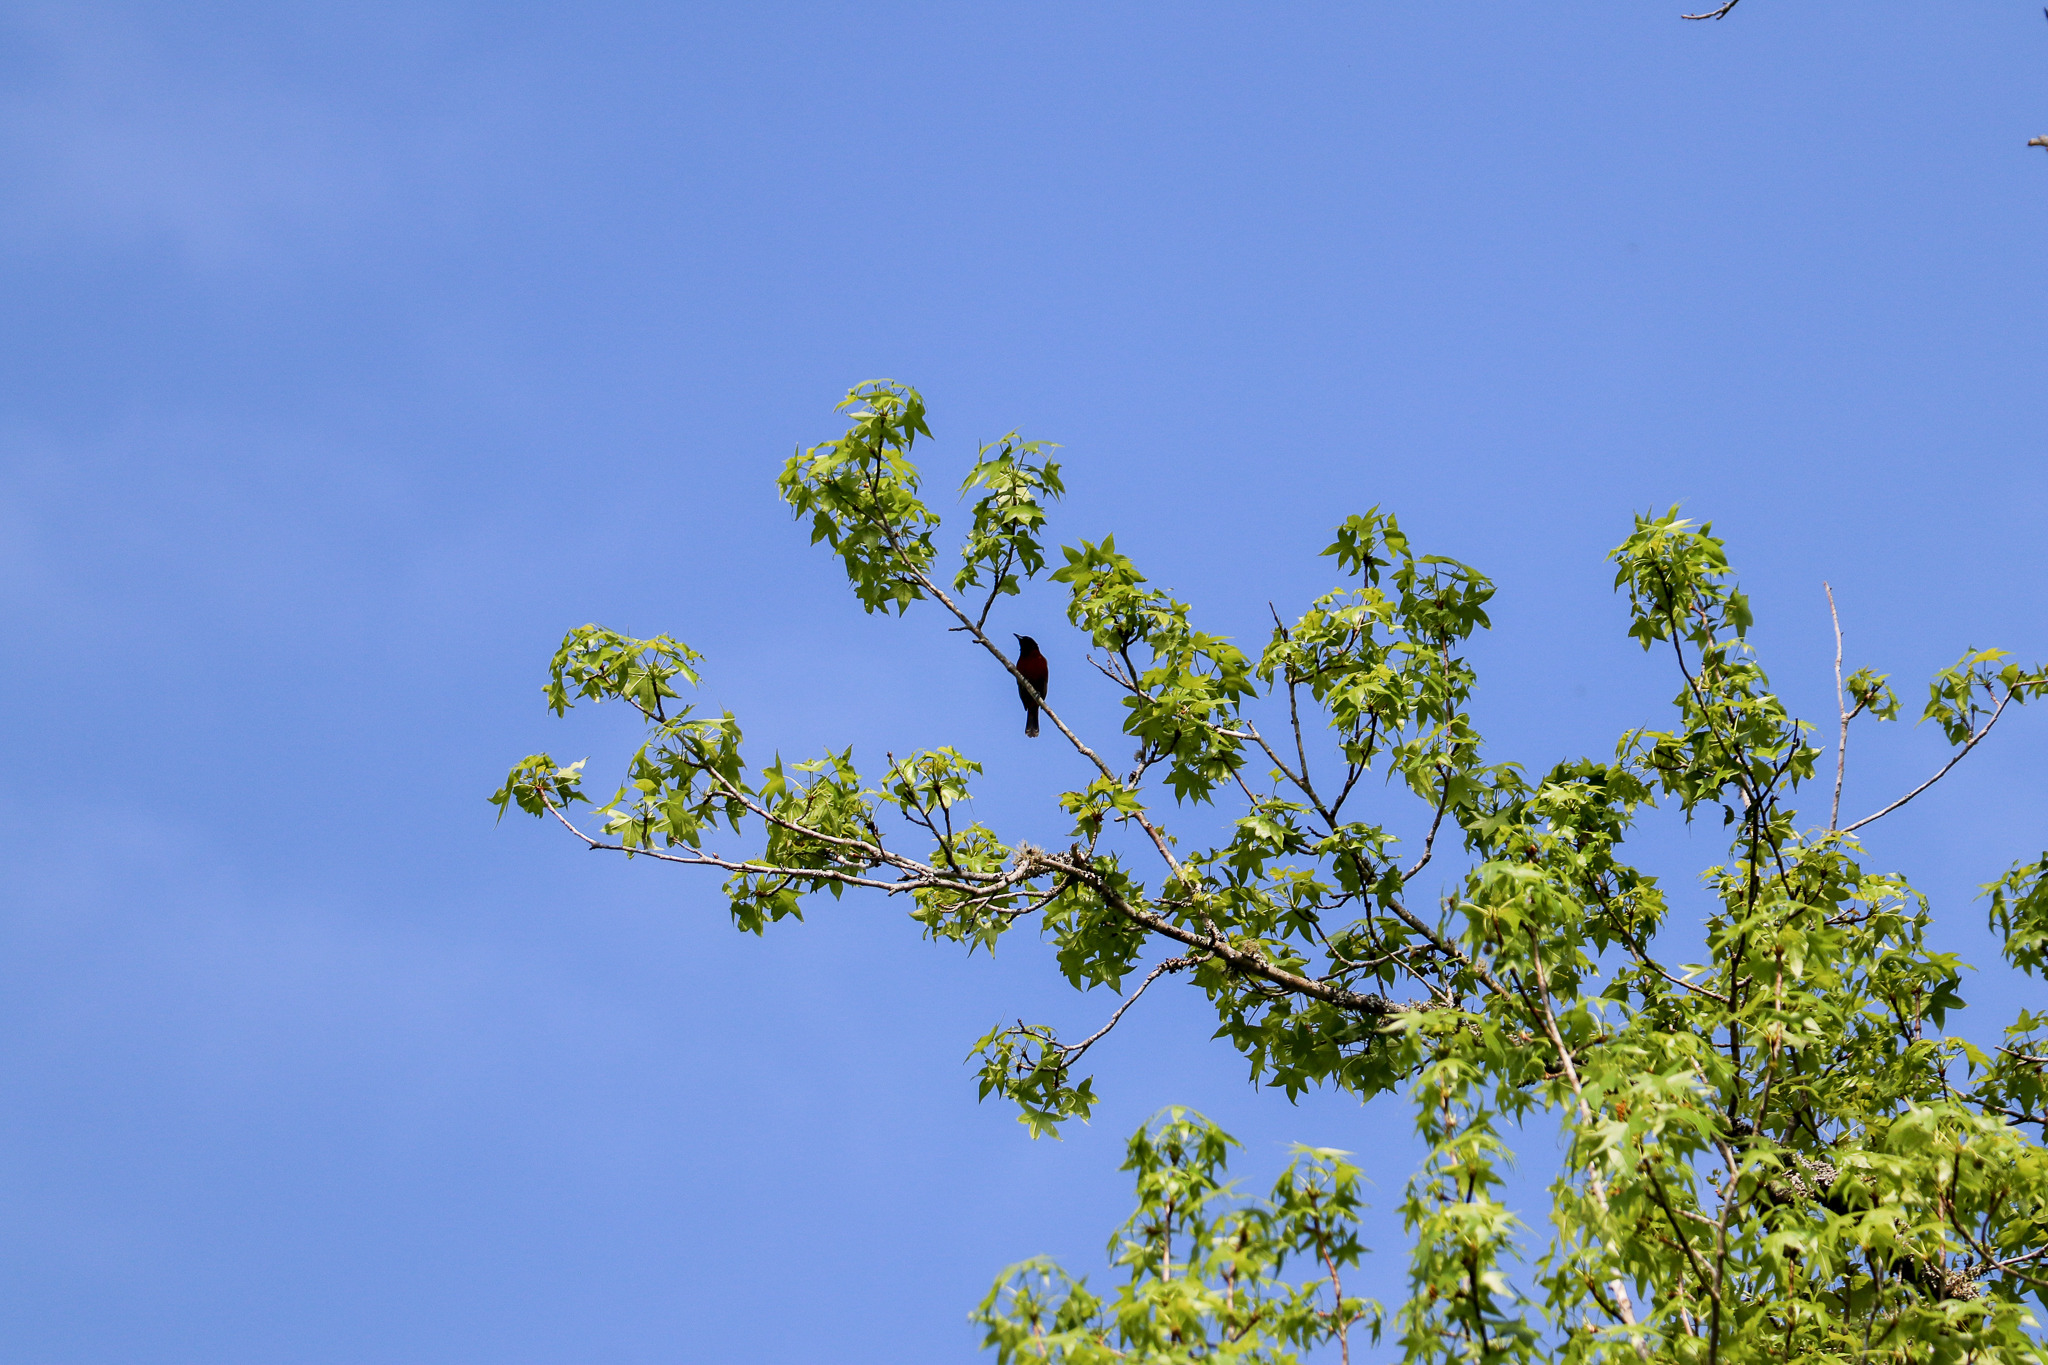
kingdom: Animalia
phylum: Chordata
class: Aves
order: Passeriformes
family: Icteridae
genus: Icterus
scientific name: Icterus spurius
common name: Orchard oriole
